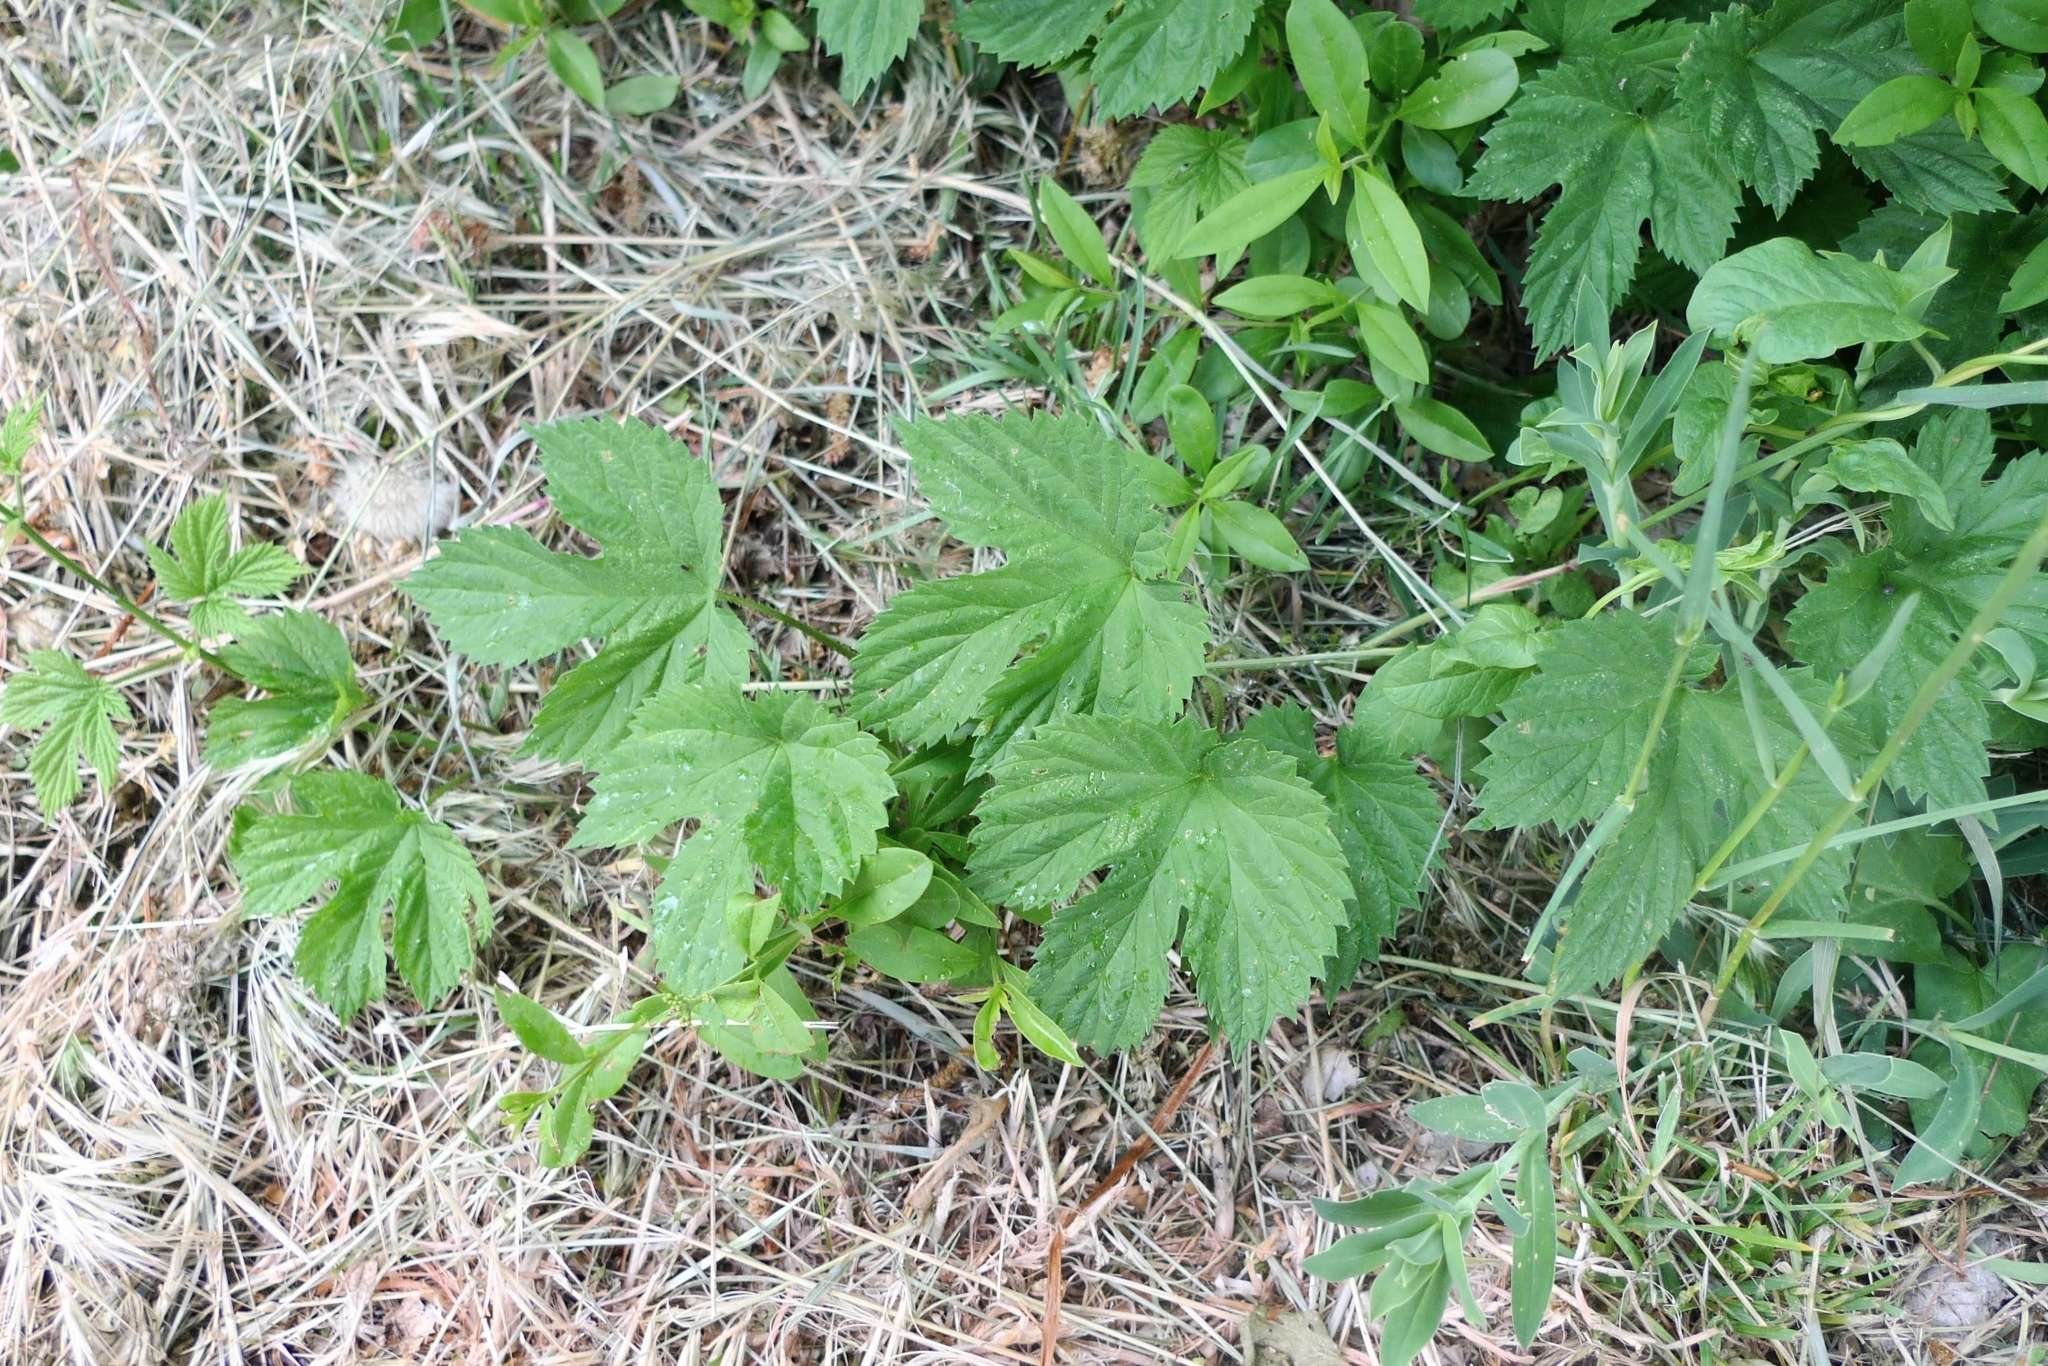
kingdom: Plantae
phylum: Tracheophyta
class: Magnoliopsida
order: Rosales
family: Cannabaceae
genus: Humulus
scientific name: Humulus lupulus
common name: Hop
